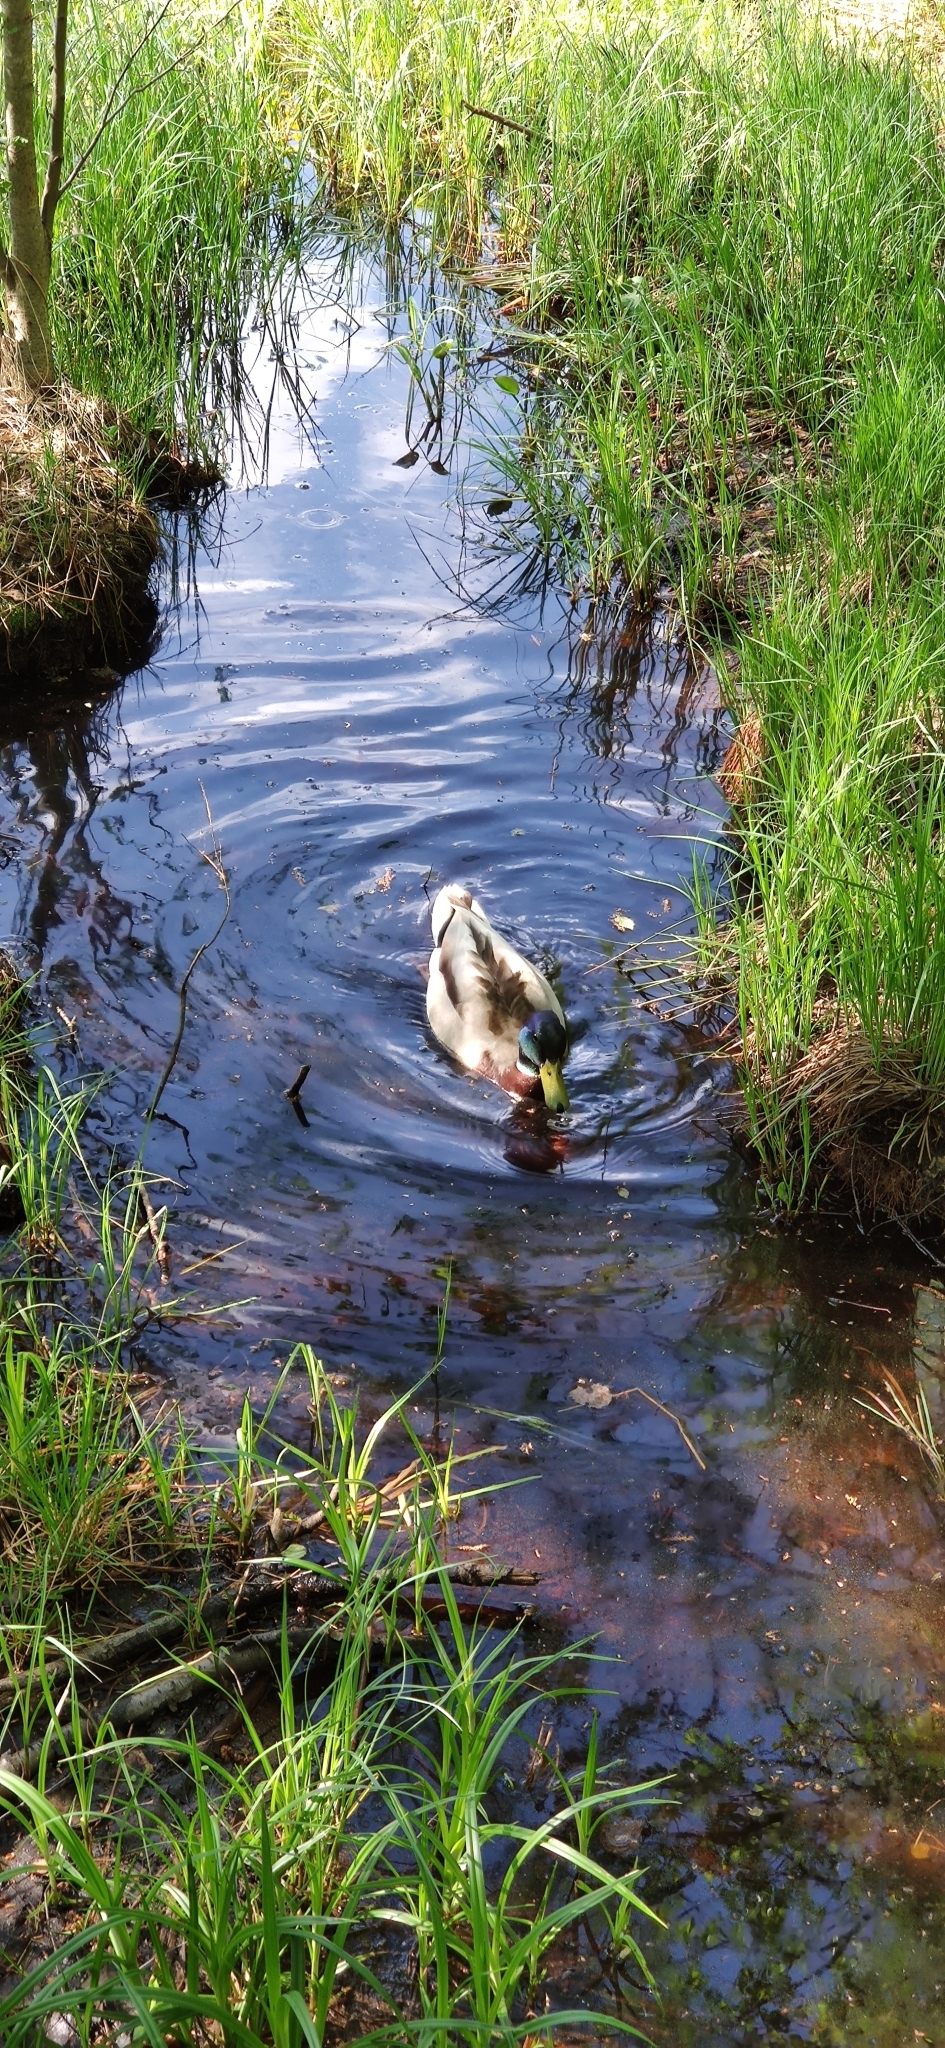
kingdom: Animalia
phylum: Chordata
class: Aves
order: Anseriformes
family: Anatidae
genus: Anas
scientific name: Anas platyrhynchos
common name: Mallard
